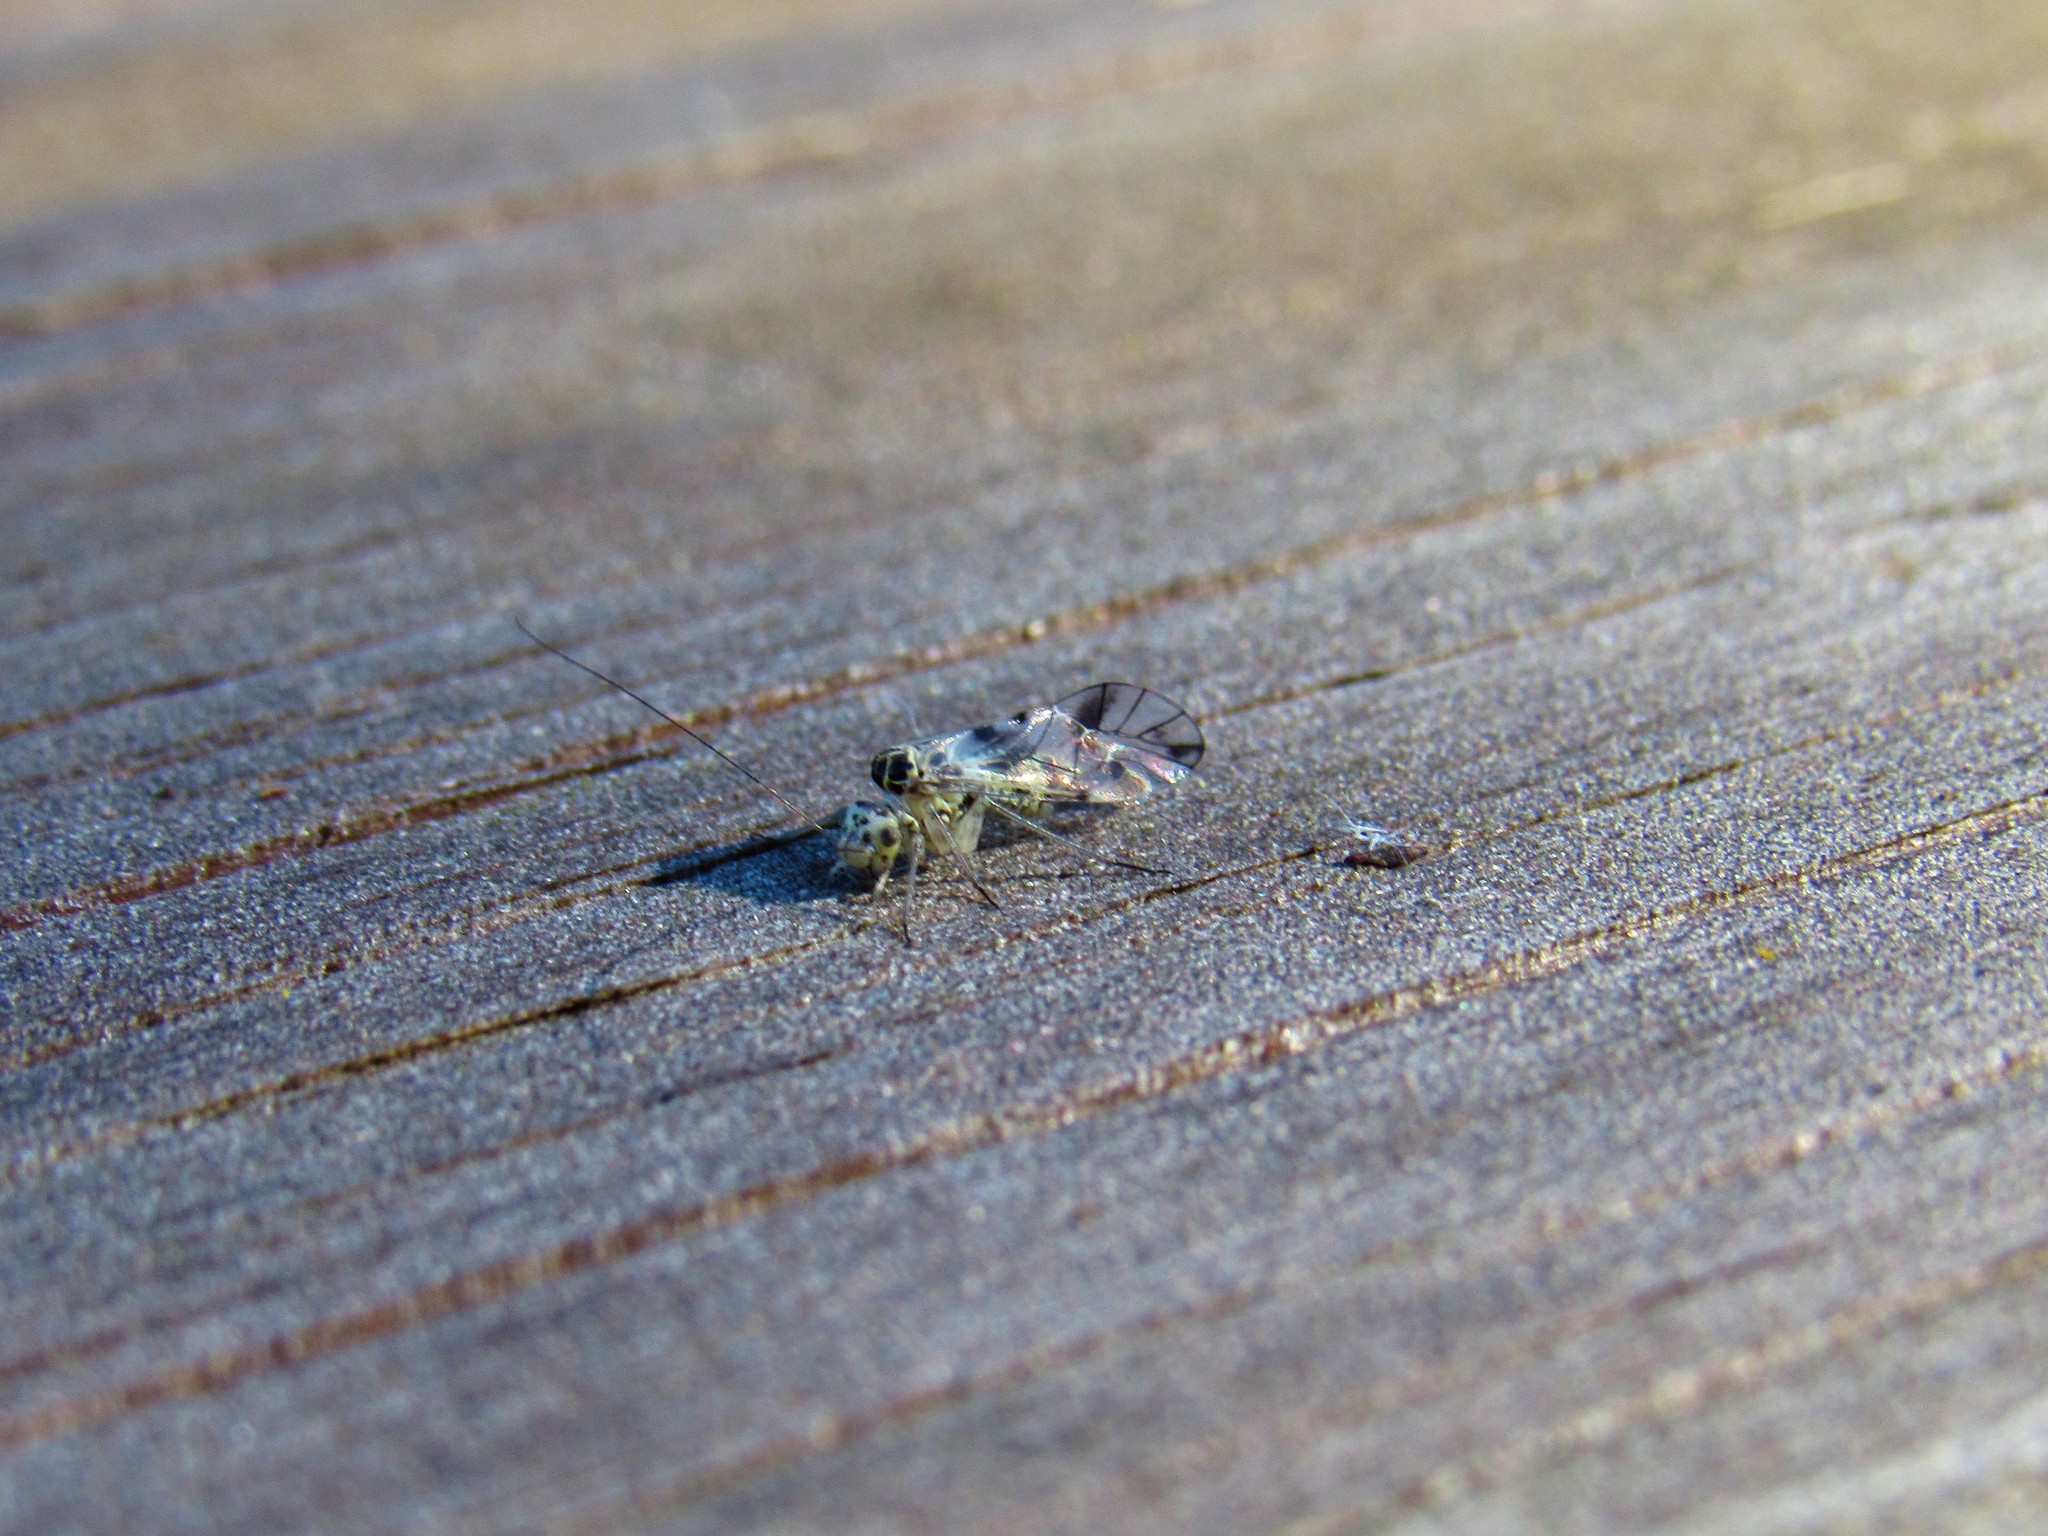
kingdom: Animalia
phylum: Arthropoda
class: Insecta
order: Psocodea
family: Psocidae
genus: Metylophorus
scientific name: Metylophorus novaescotiae
